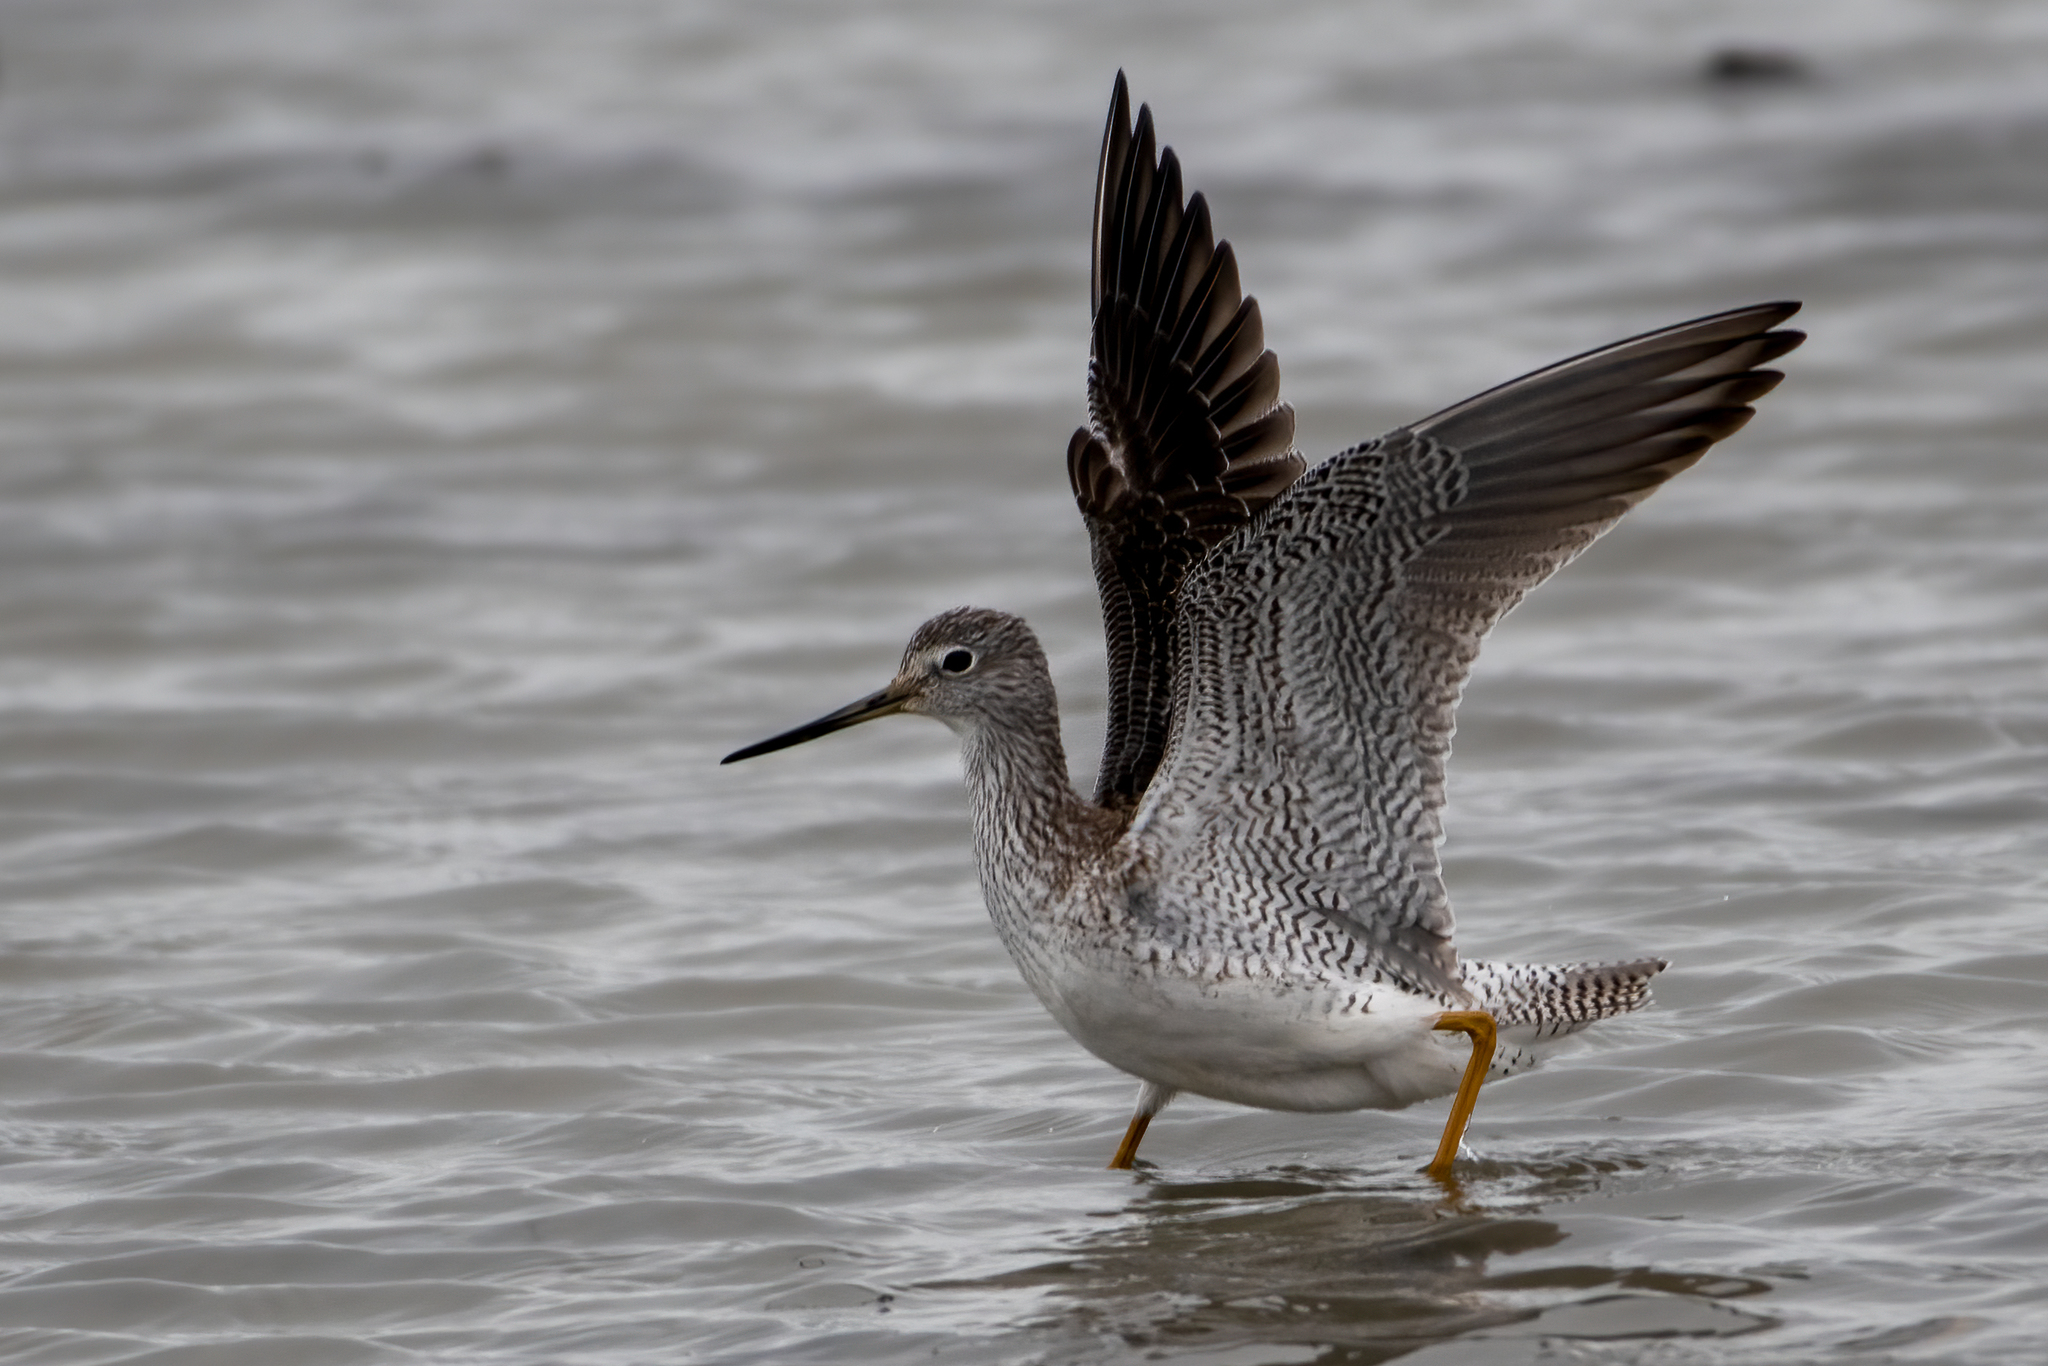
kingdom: Animalia
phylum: Chordata
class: Aves
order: Charadriiformes
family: Scolopacidae
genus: Tringa
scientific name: Tringa melanoleuca
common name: Greater yellowlegs
